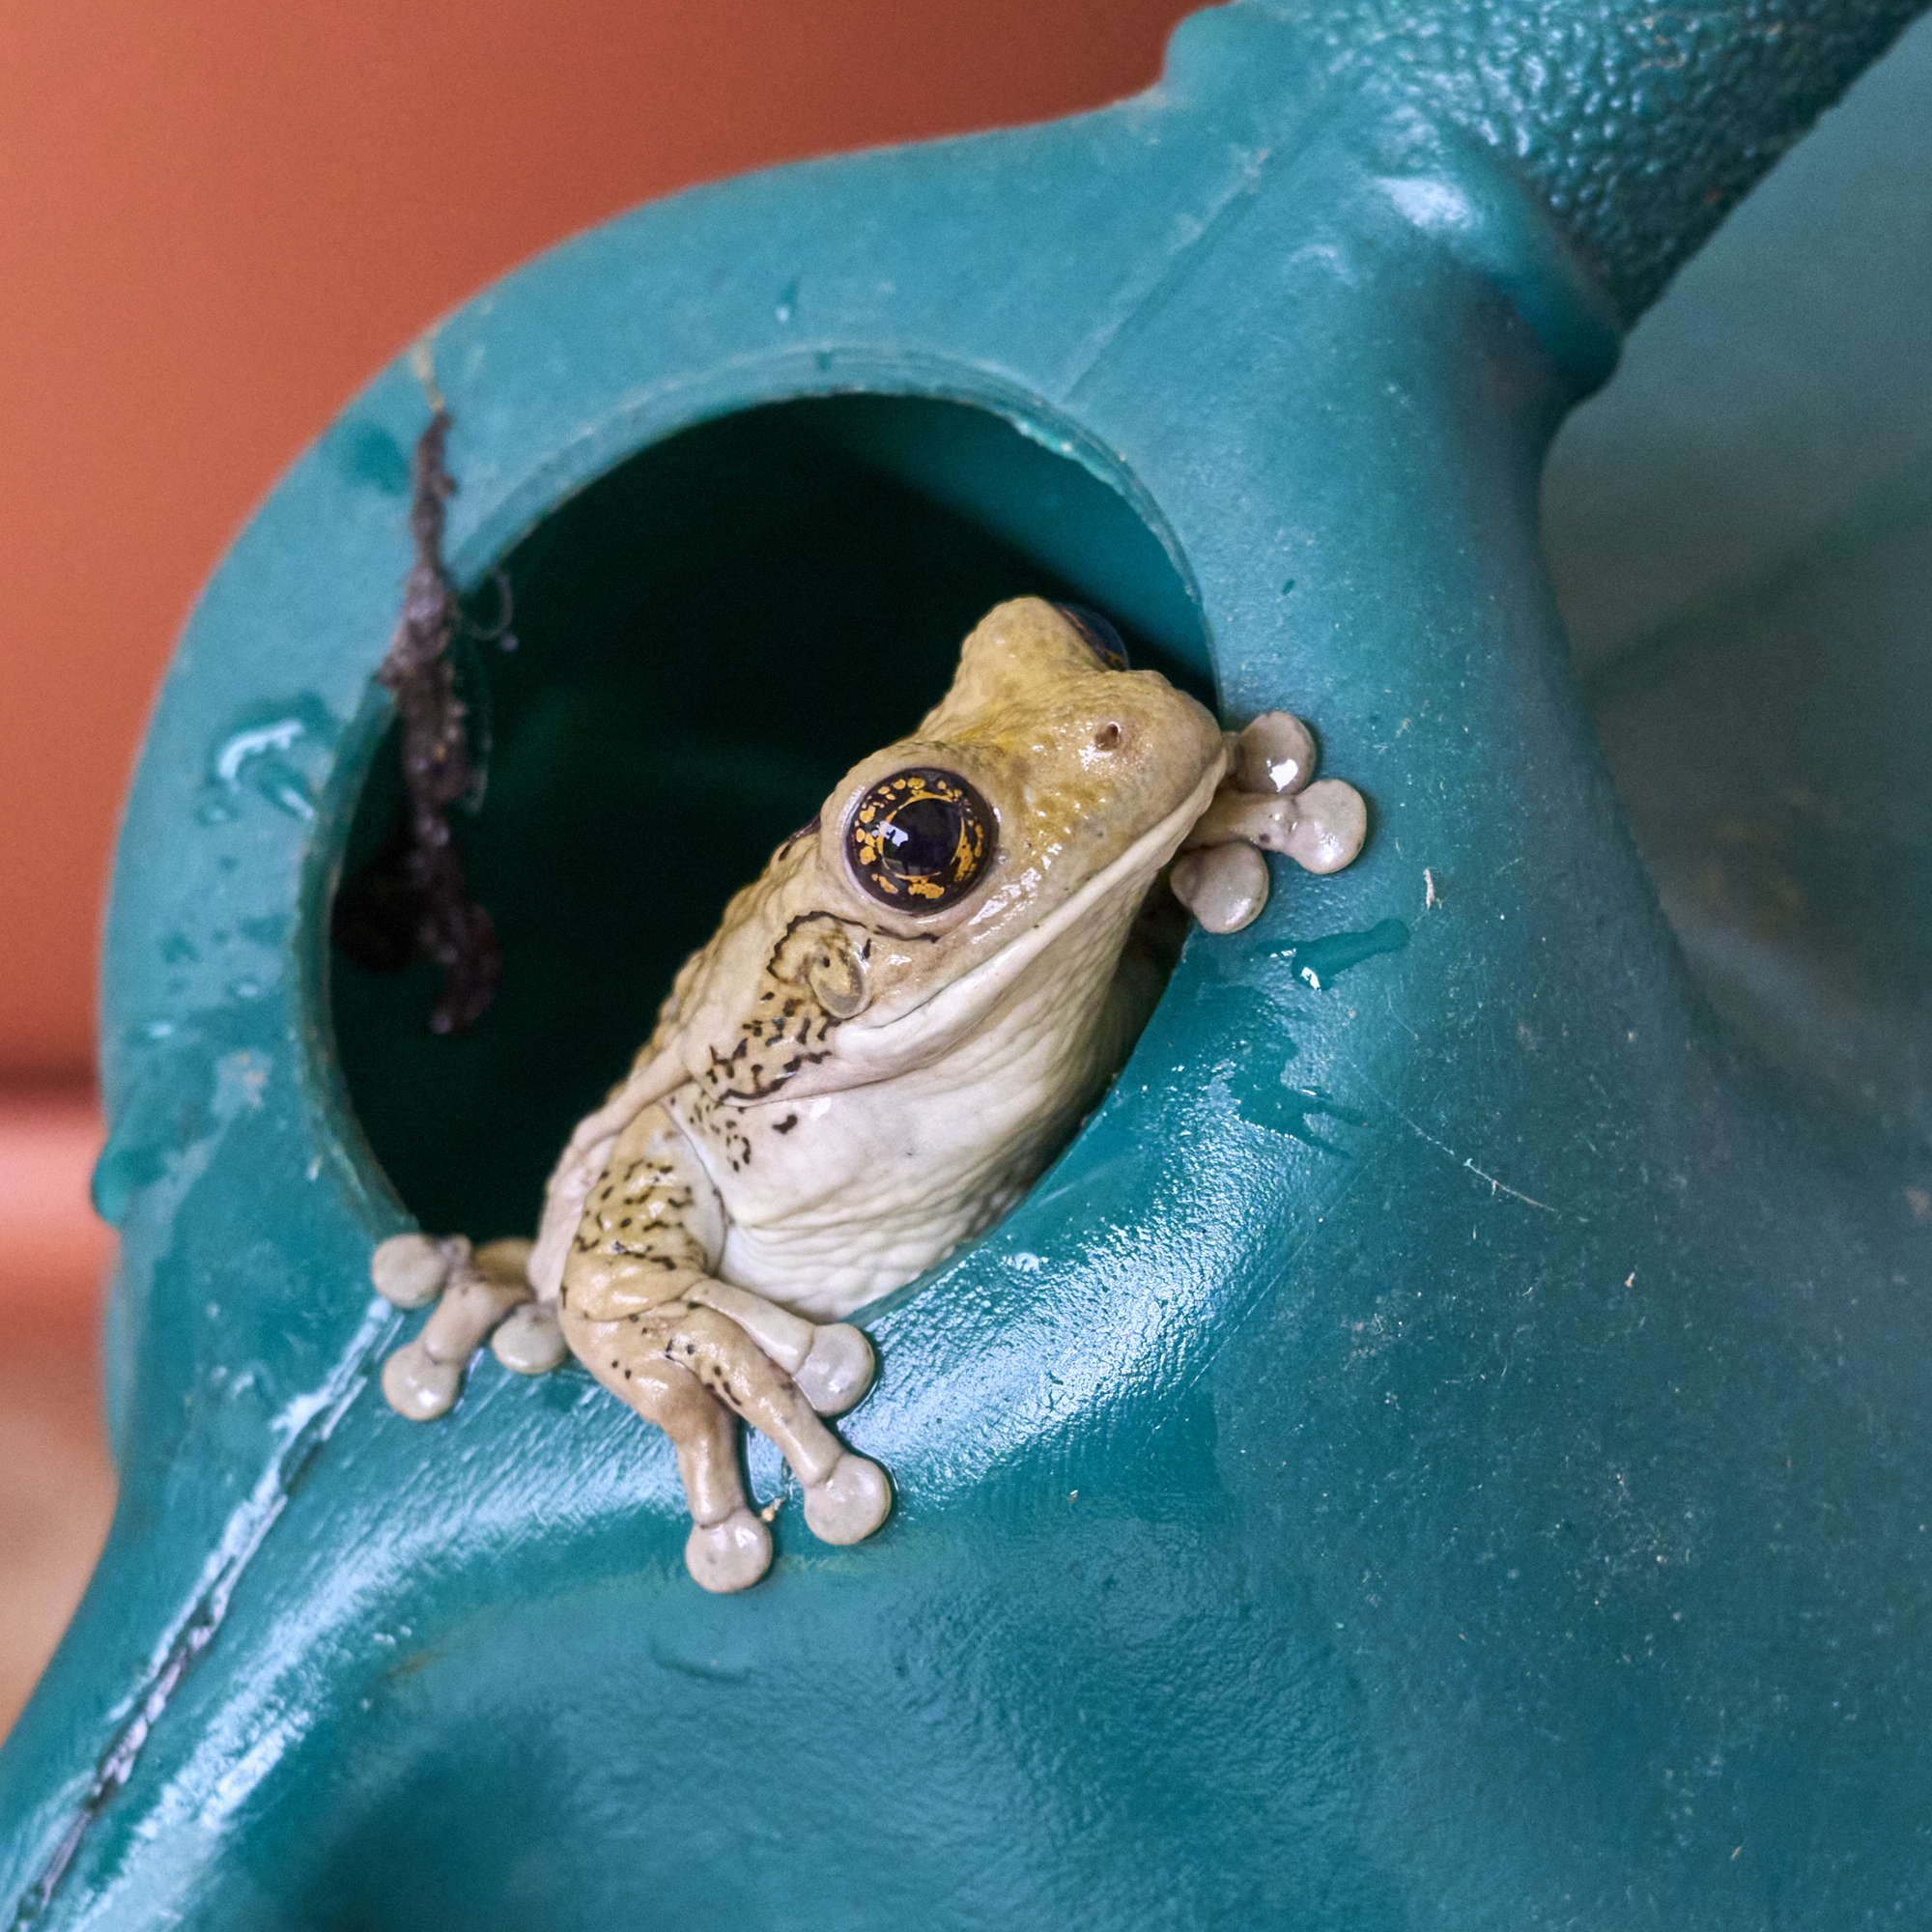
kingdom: Animalia
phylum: Chordata
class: Amphibia
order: Anura
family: Hylidae
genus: Trachycephalus
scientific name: Trachycephalus vermiculatus
